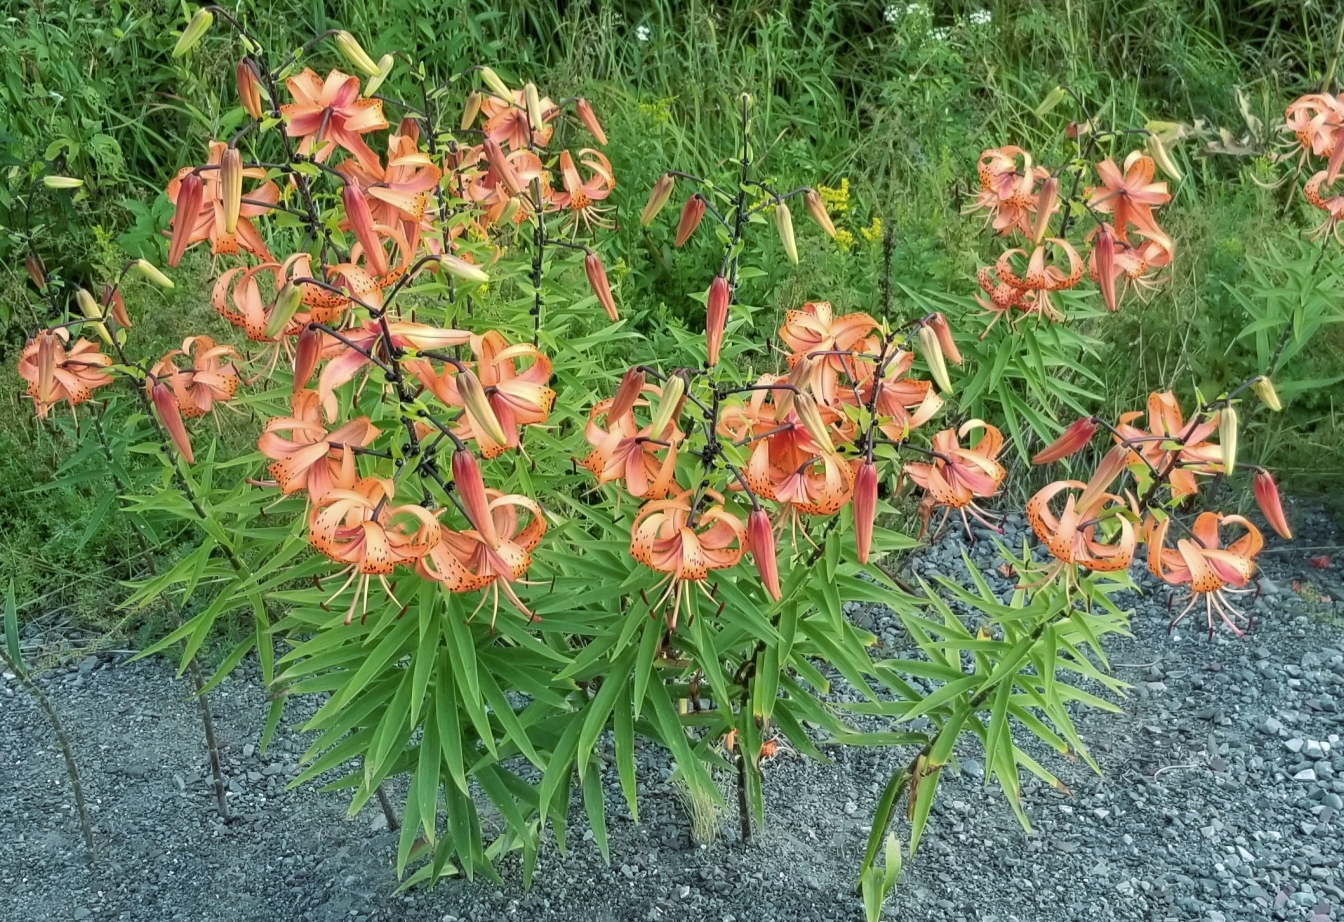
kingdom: Plantae
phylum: Tracheophyta
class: Liliopsida
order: Liliales
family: Liliaceae
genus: Lilium
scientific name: Lilium lancifolium
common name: Tiger lily
